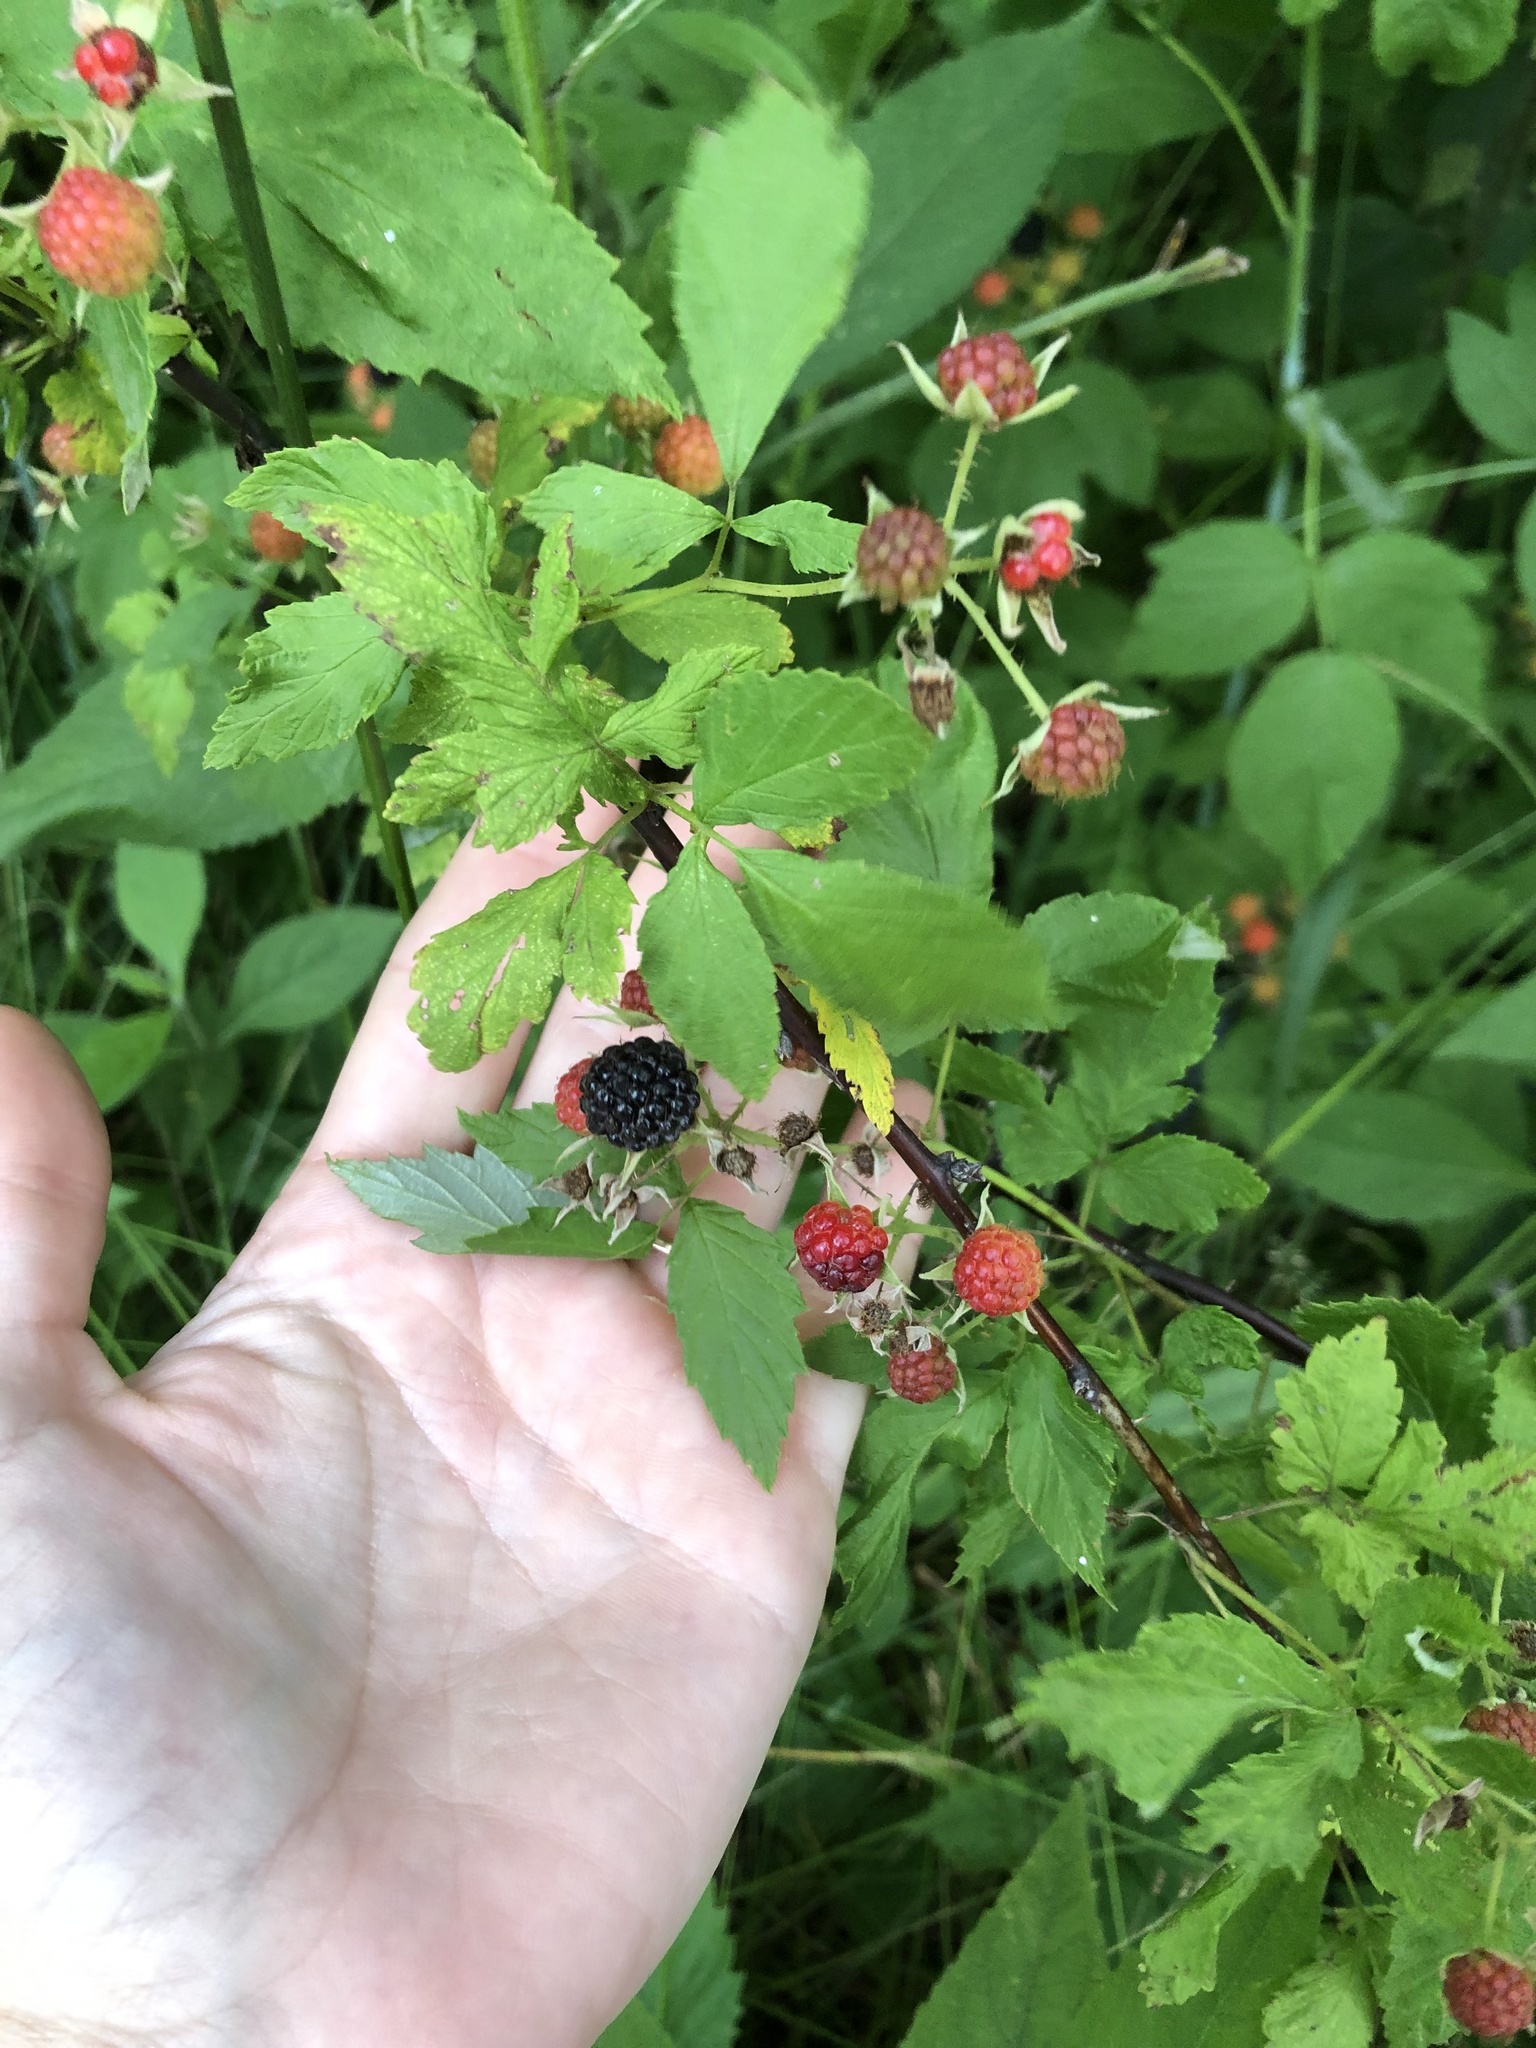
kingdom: Plantae
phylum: Tracheophyta
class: Magnoliopsida
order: Rosales
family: Rosaceae
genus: Rubus
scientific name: Rubus occidentalis
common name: Black raspberry
